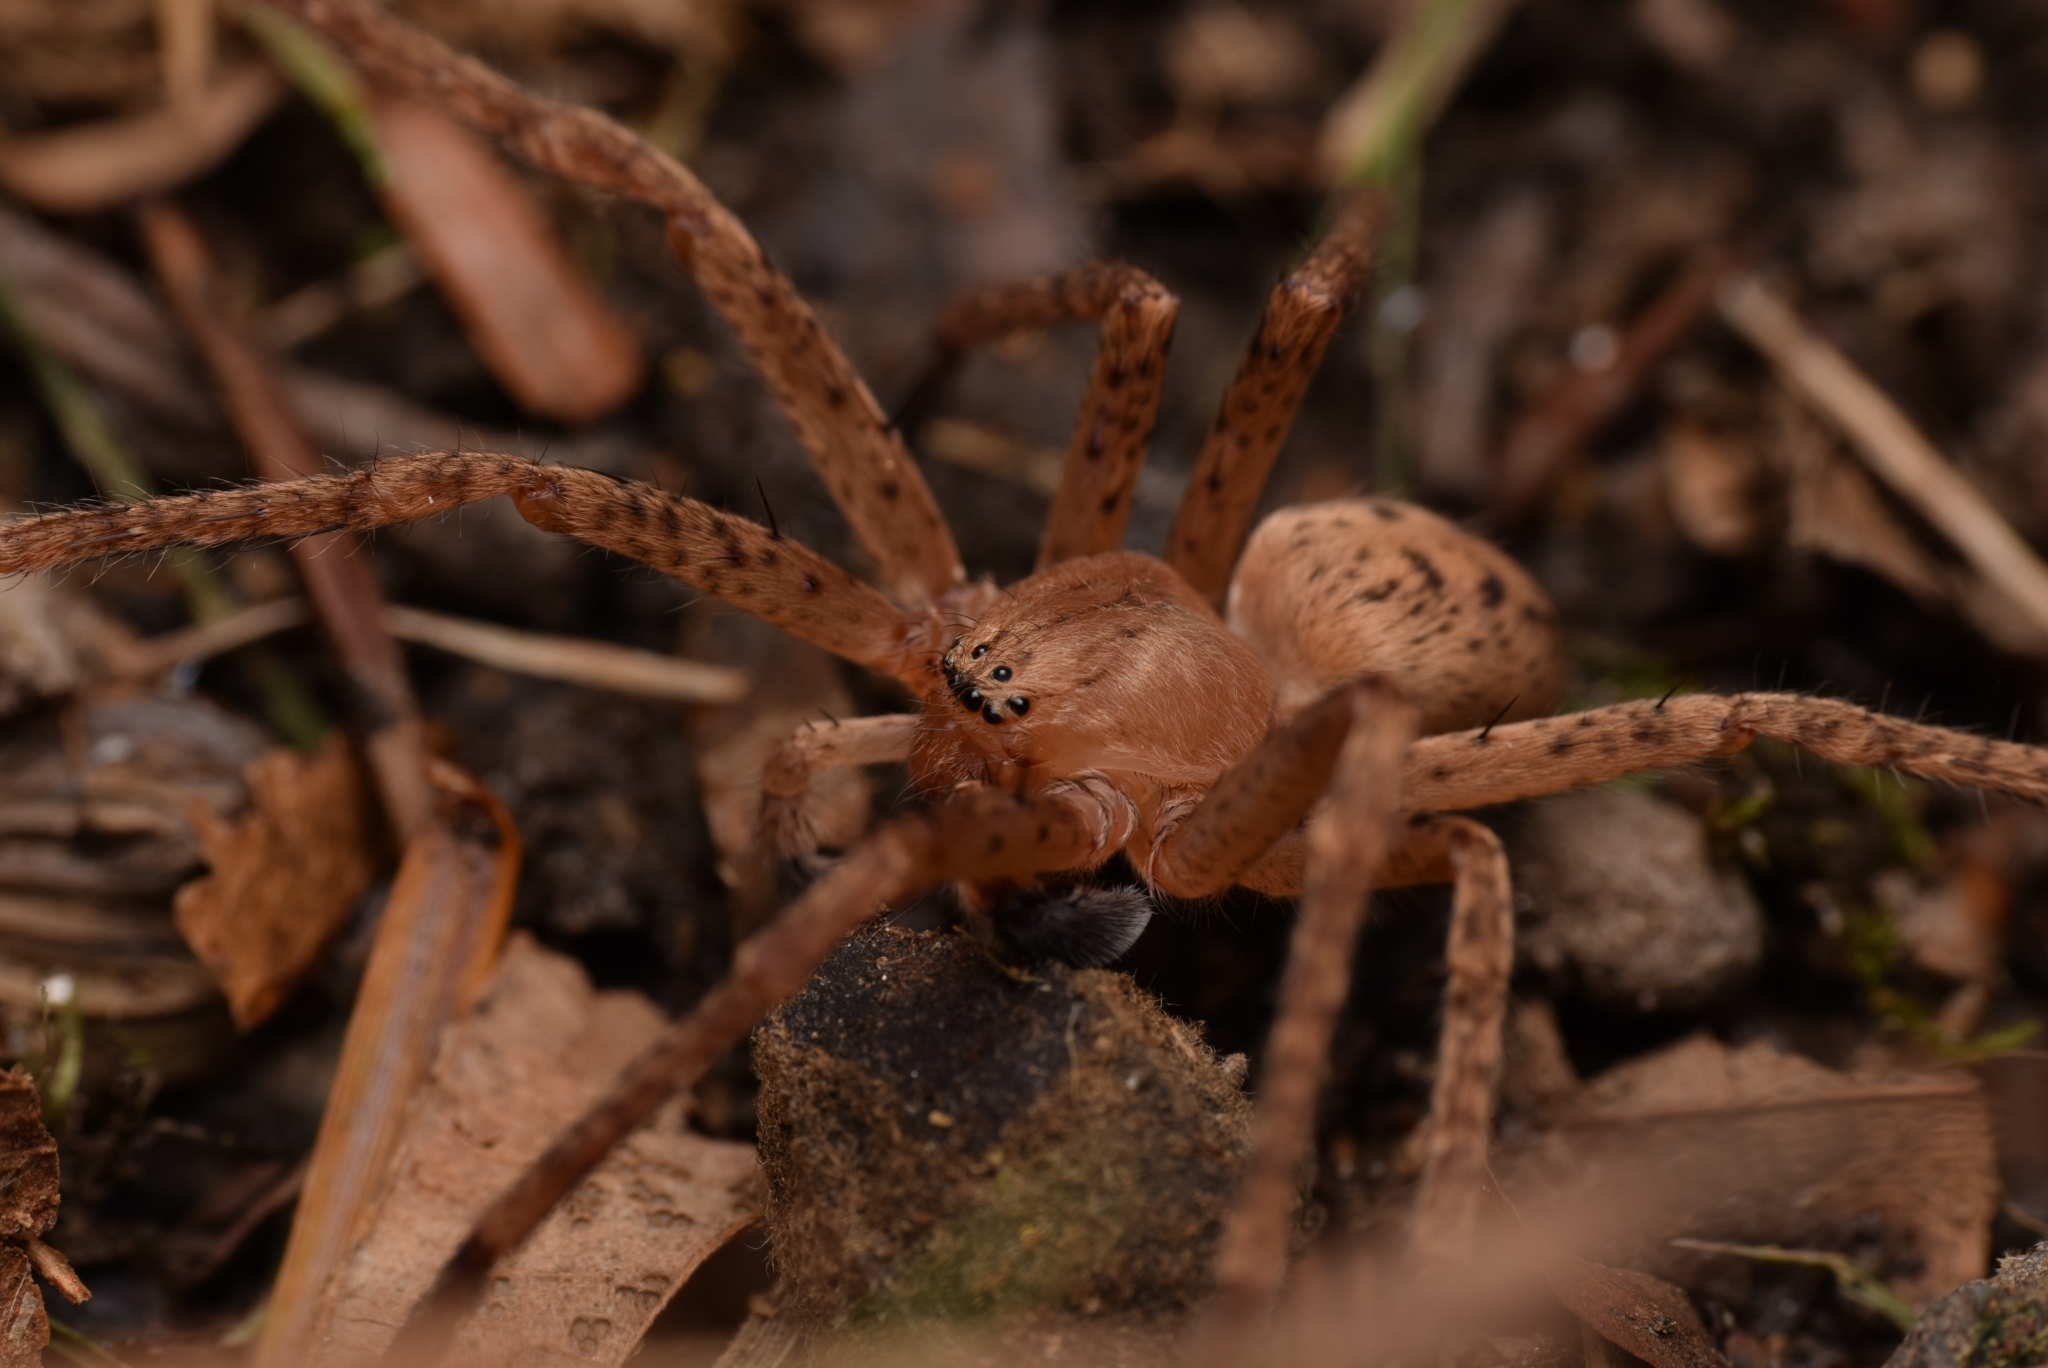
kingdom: Animalia
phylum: Arthropoda
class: Arachnida
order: Araneae
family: Sparassidae
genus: Olios
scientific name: Olios argelasius
